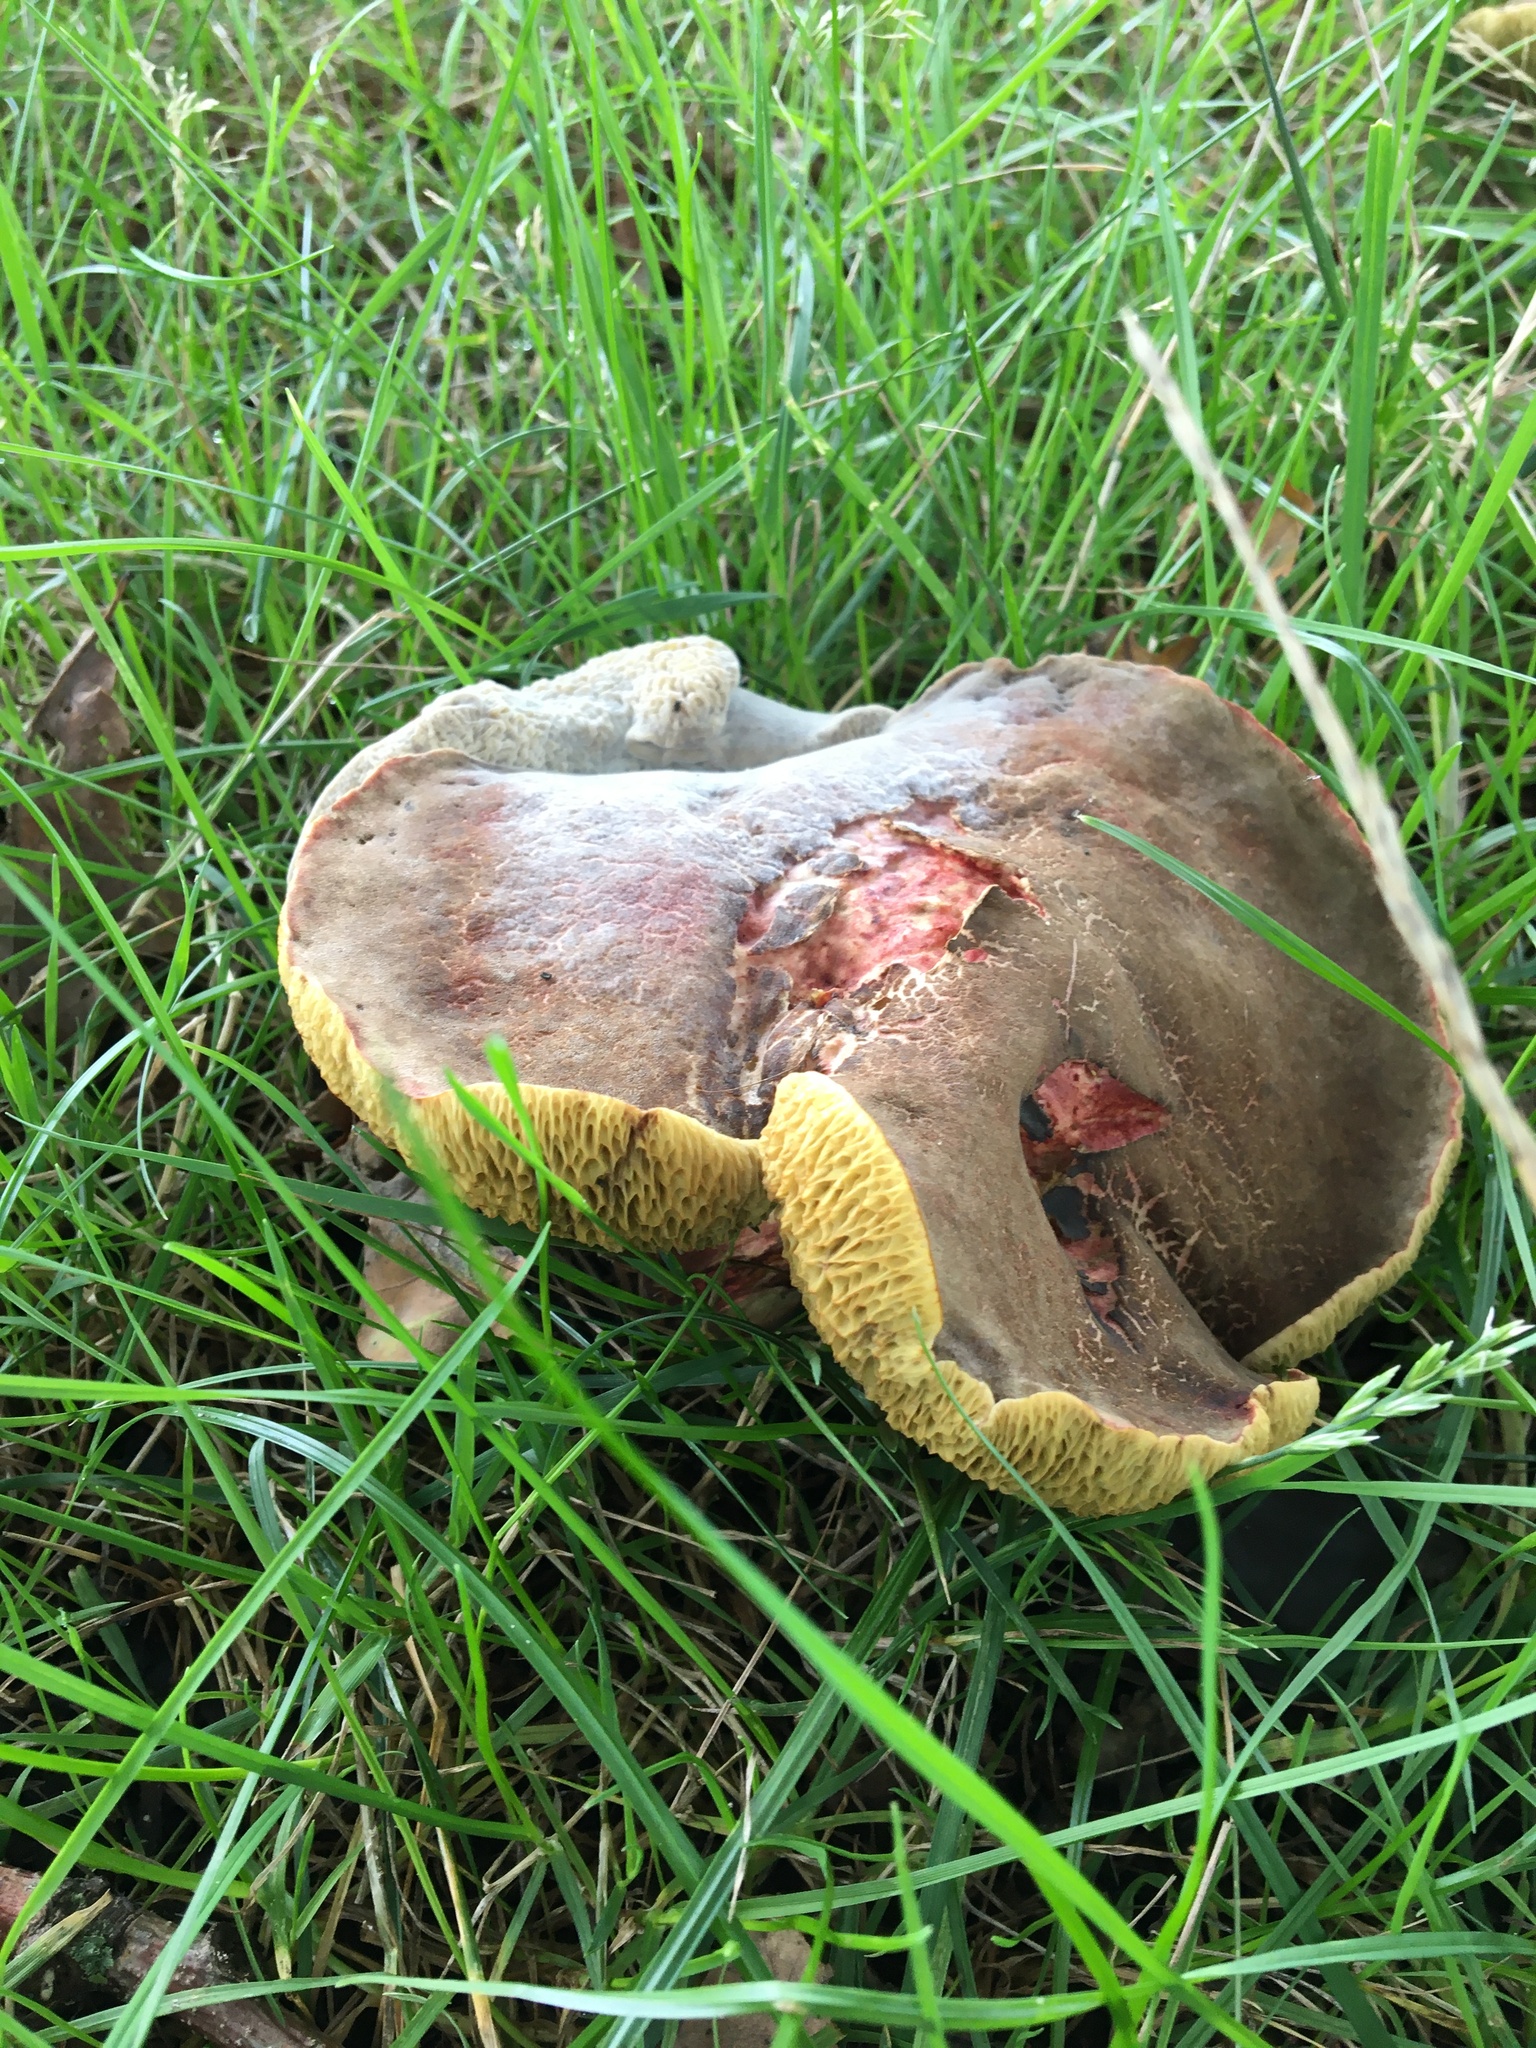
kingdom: Fungi
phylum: Basidiomycota
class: Agaricomycetes
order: Boletales
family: Boletaceae
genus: Hemileccinum
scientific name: Hemileccinum impolitum
